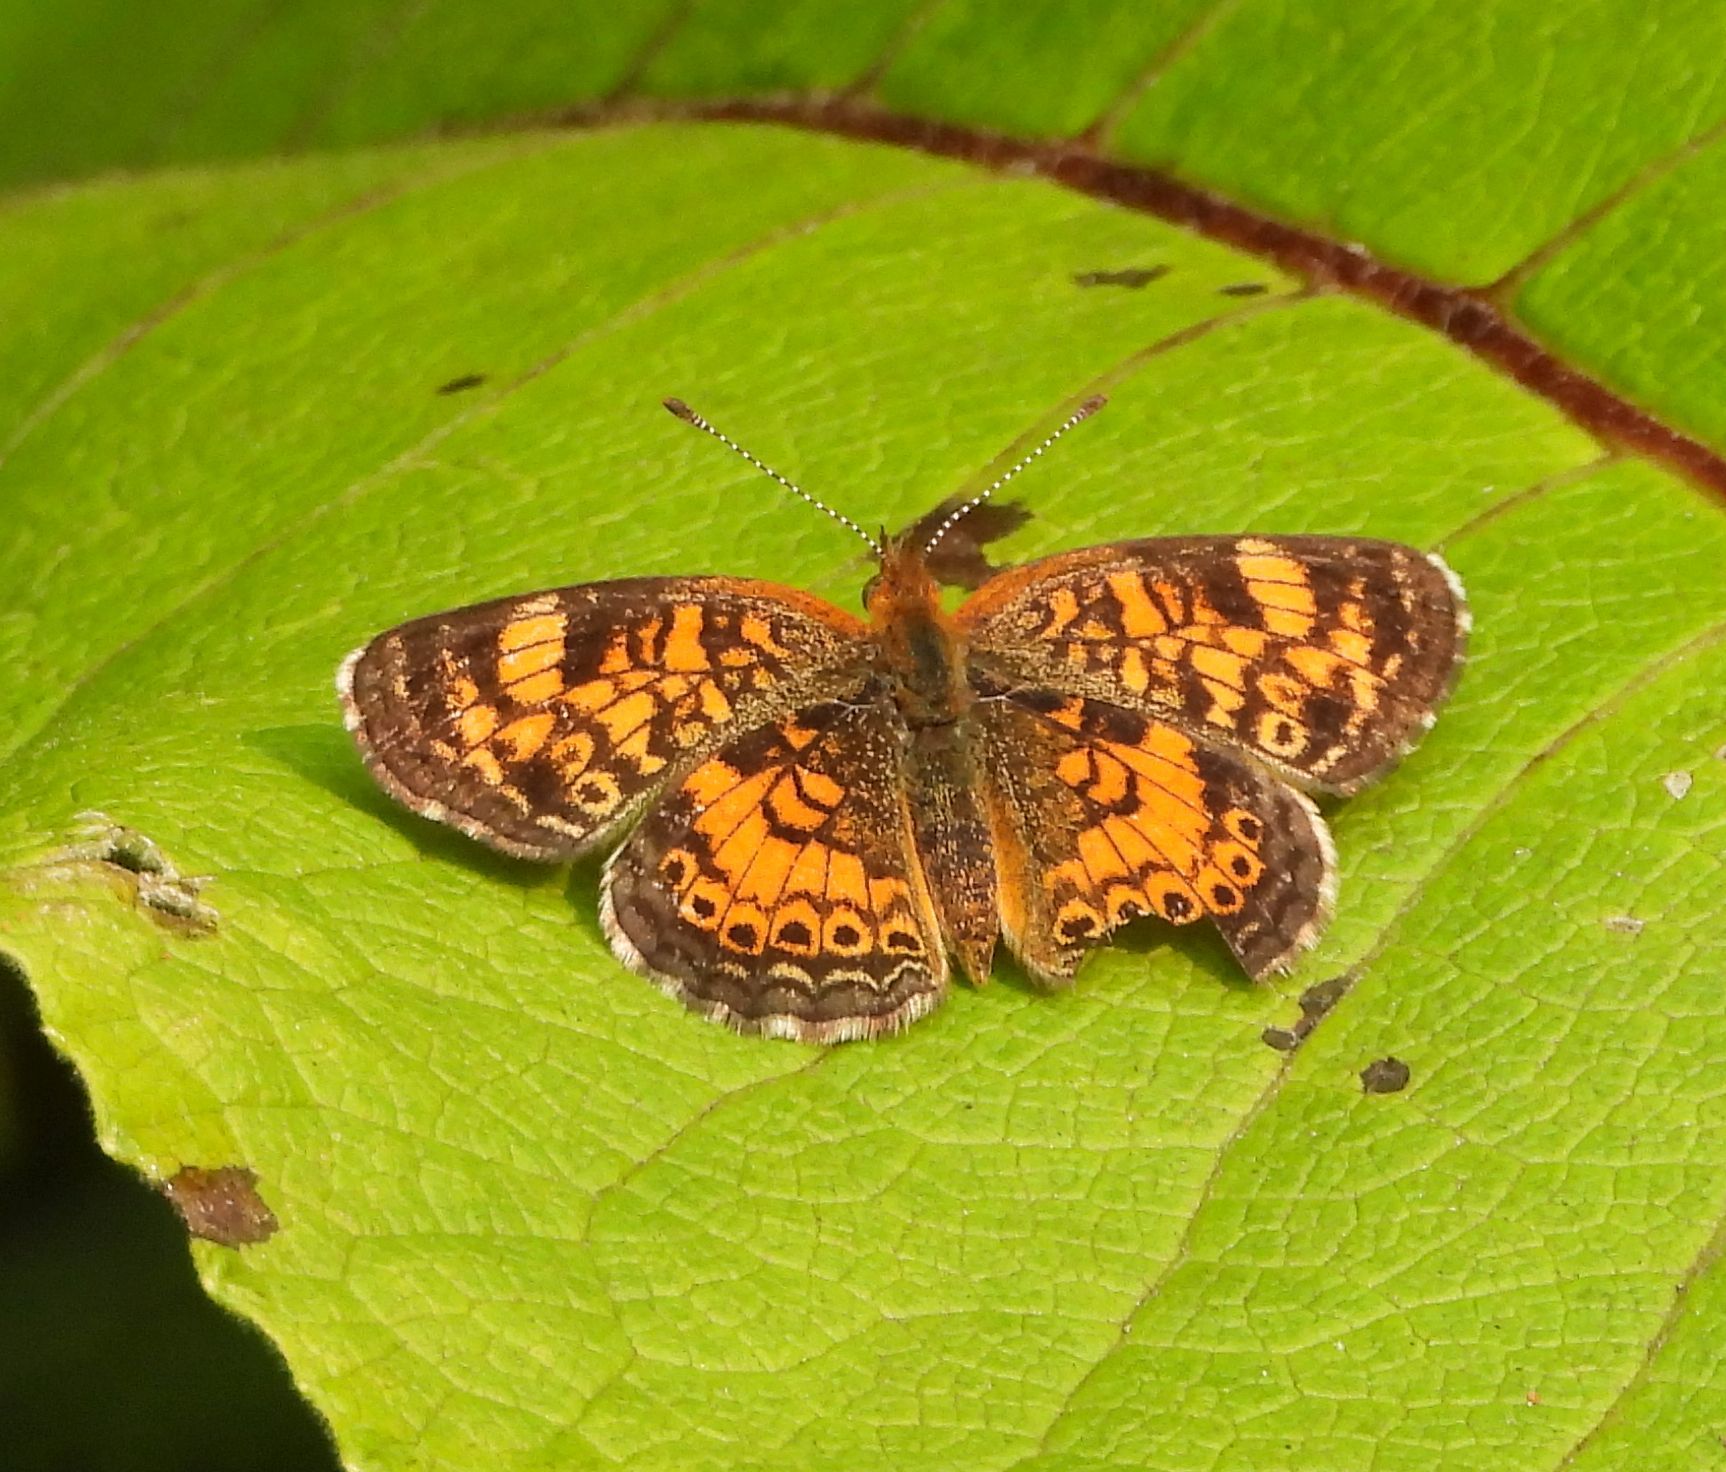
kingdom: Animalia
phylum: Arthropoda
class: Insecta
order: Lepidoptera
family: Nymphalidae
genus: Phyciodes
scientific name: Phyciodes tharos
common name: Pearl crescent
